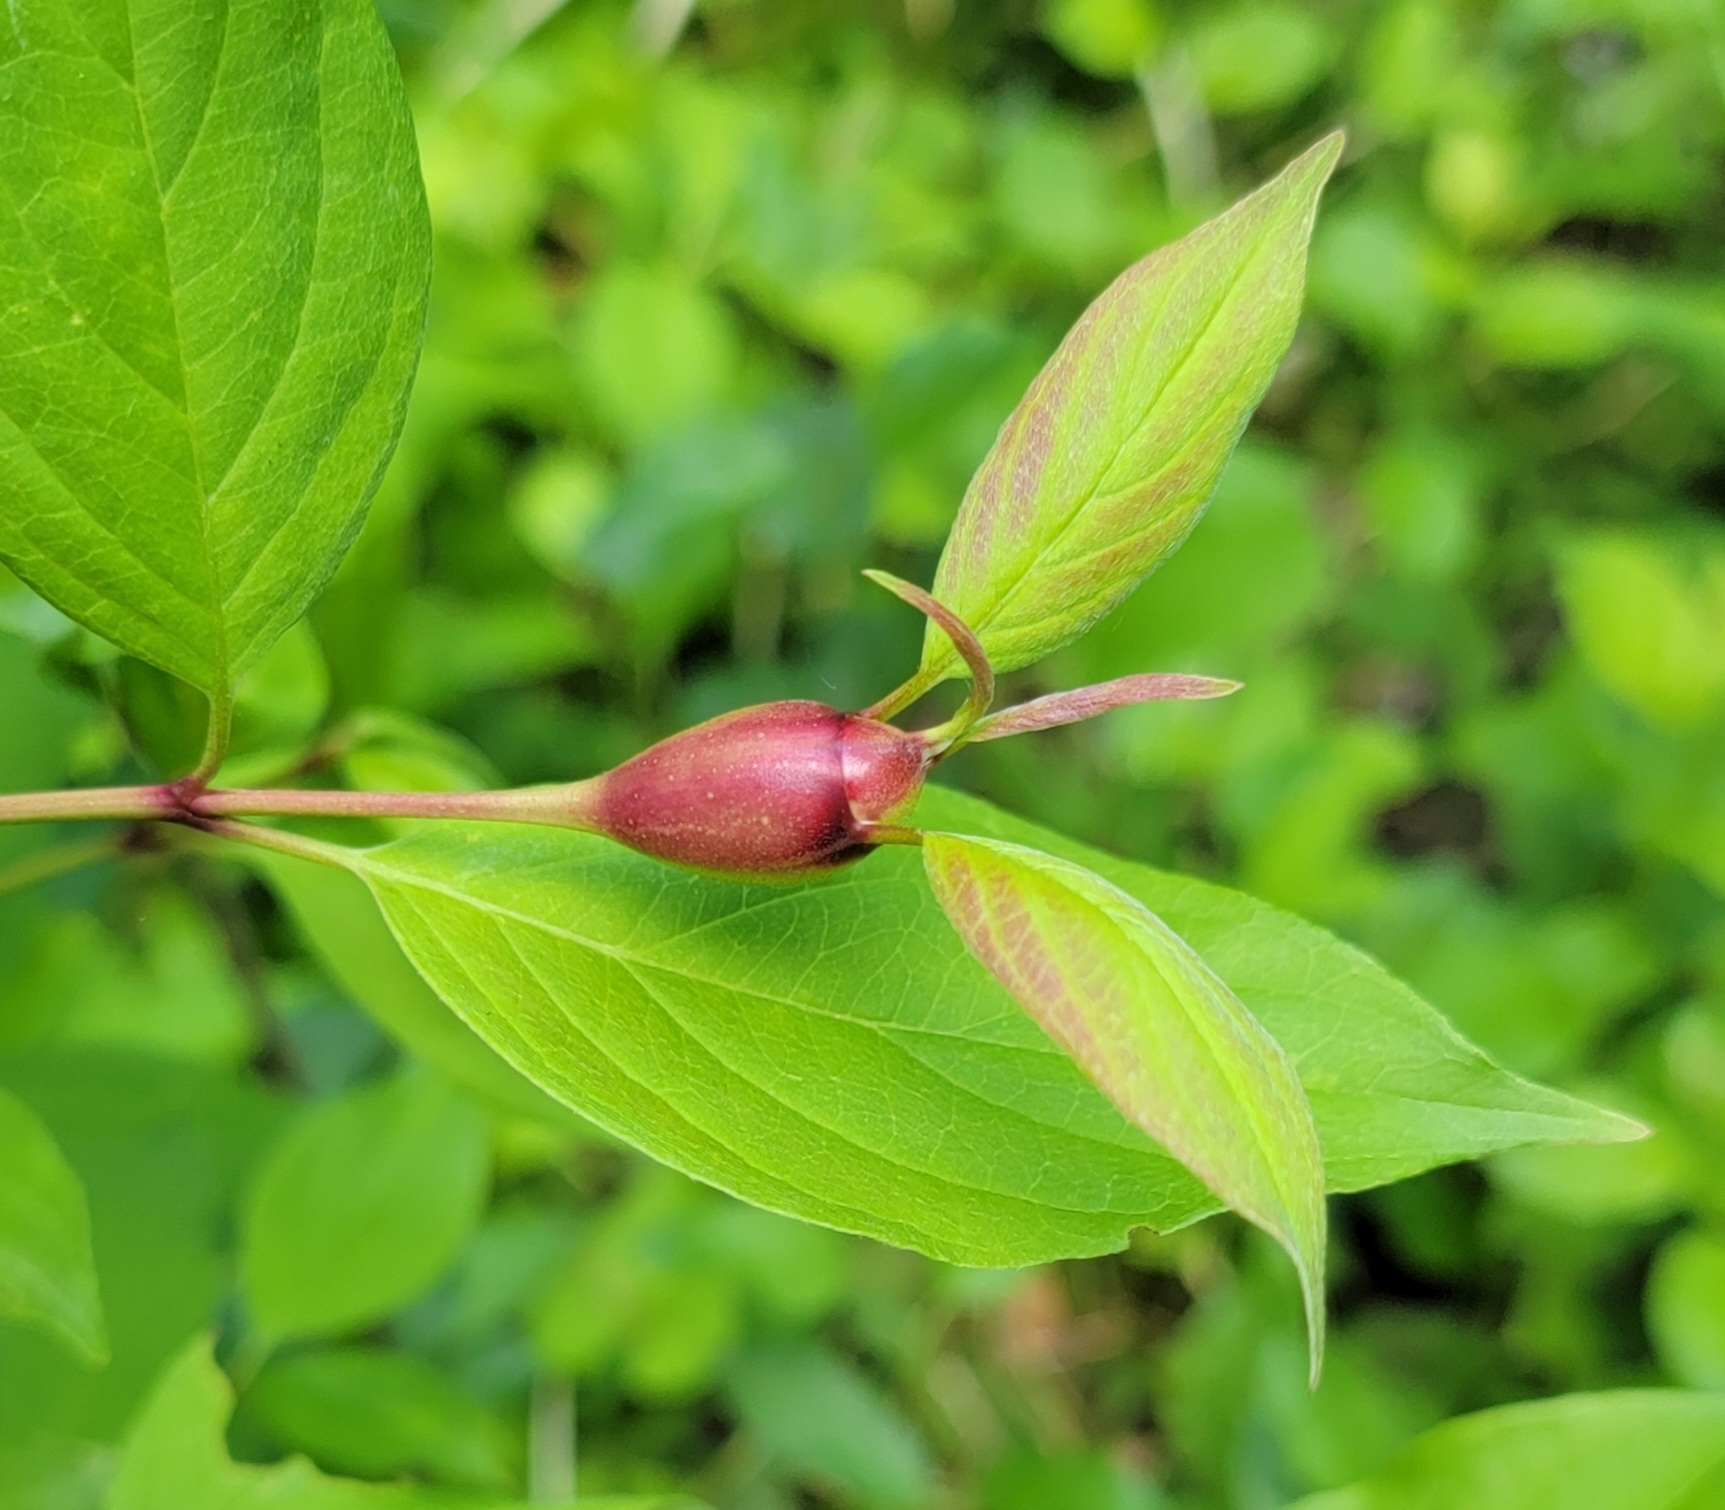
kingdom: Animalia
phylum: Arthropoda
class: Insecta
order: Diptera
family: Cecidomyiidae
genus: Resseliella
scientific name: Resseliella clavula
